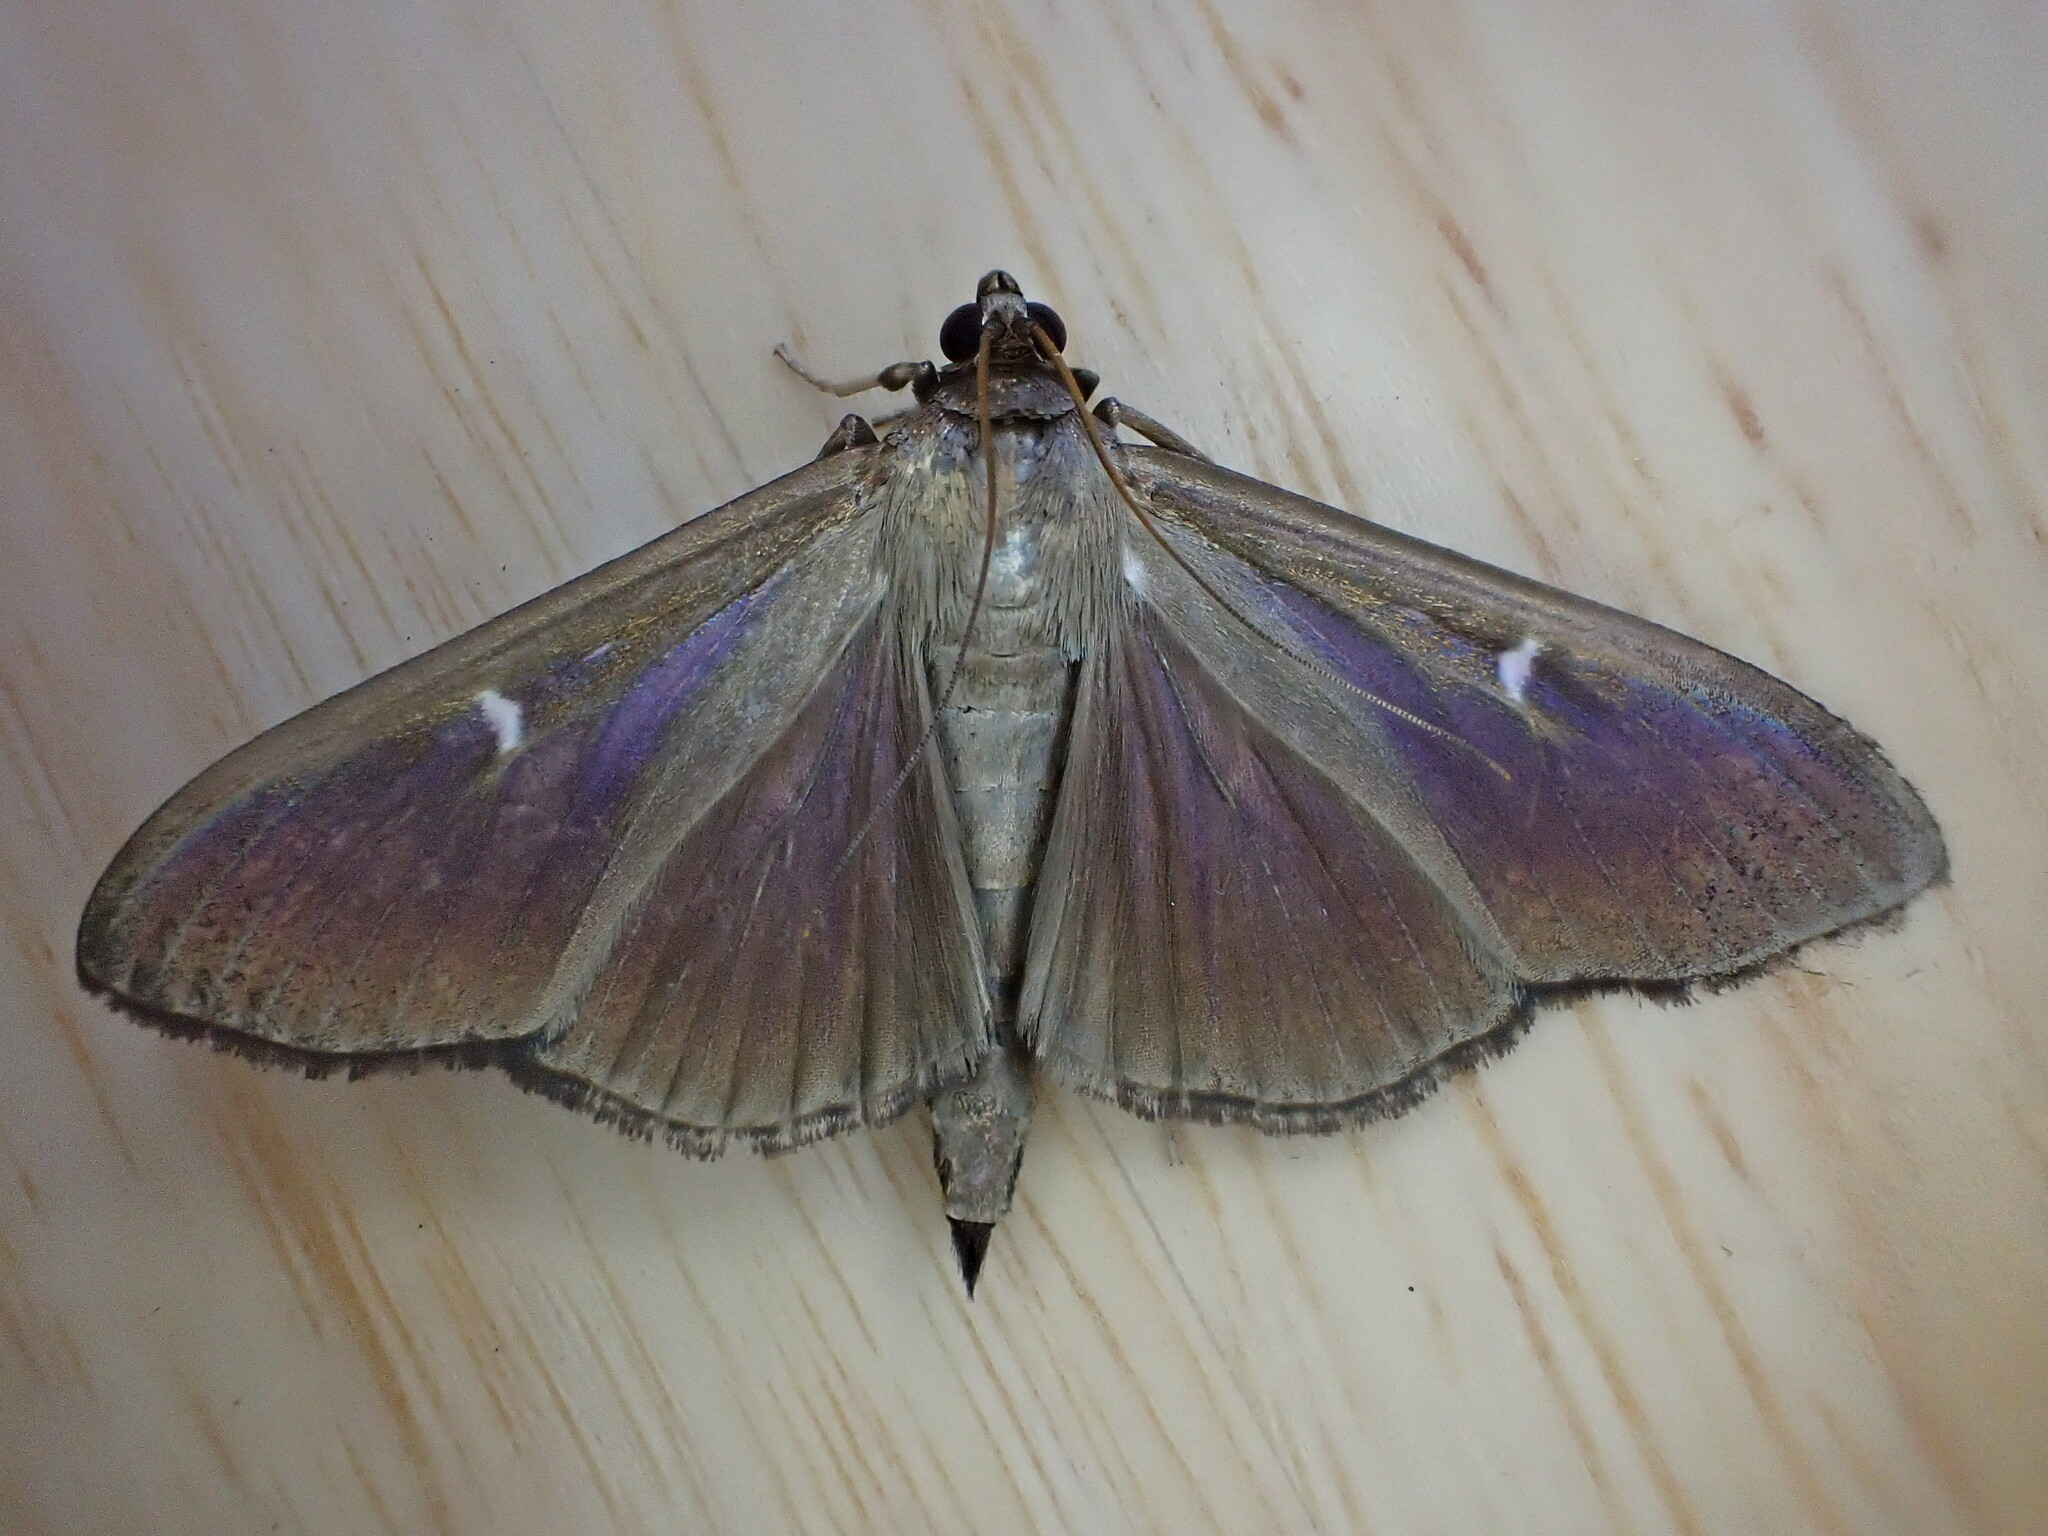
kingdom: Animalia
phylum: Arthropoda
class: Insecta
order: Lepidoptera
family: Crambidae
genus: Cydalima
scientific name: Cydalima perspectalis
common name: Box tree moth
